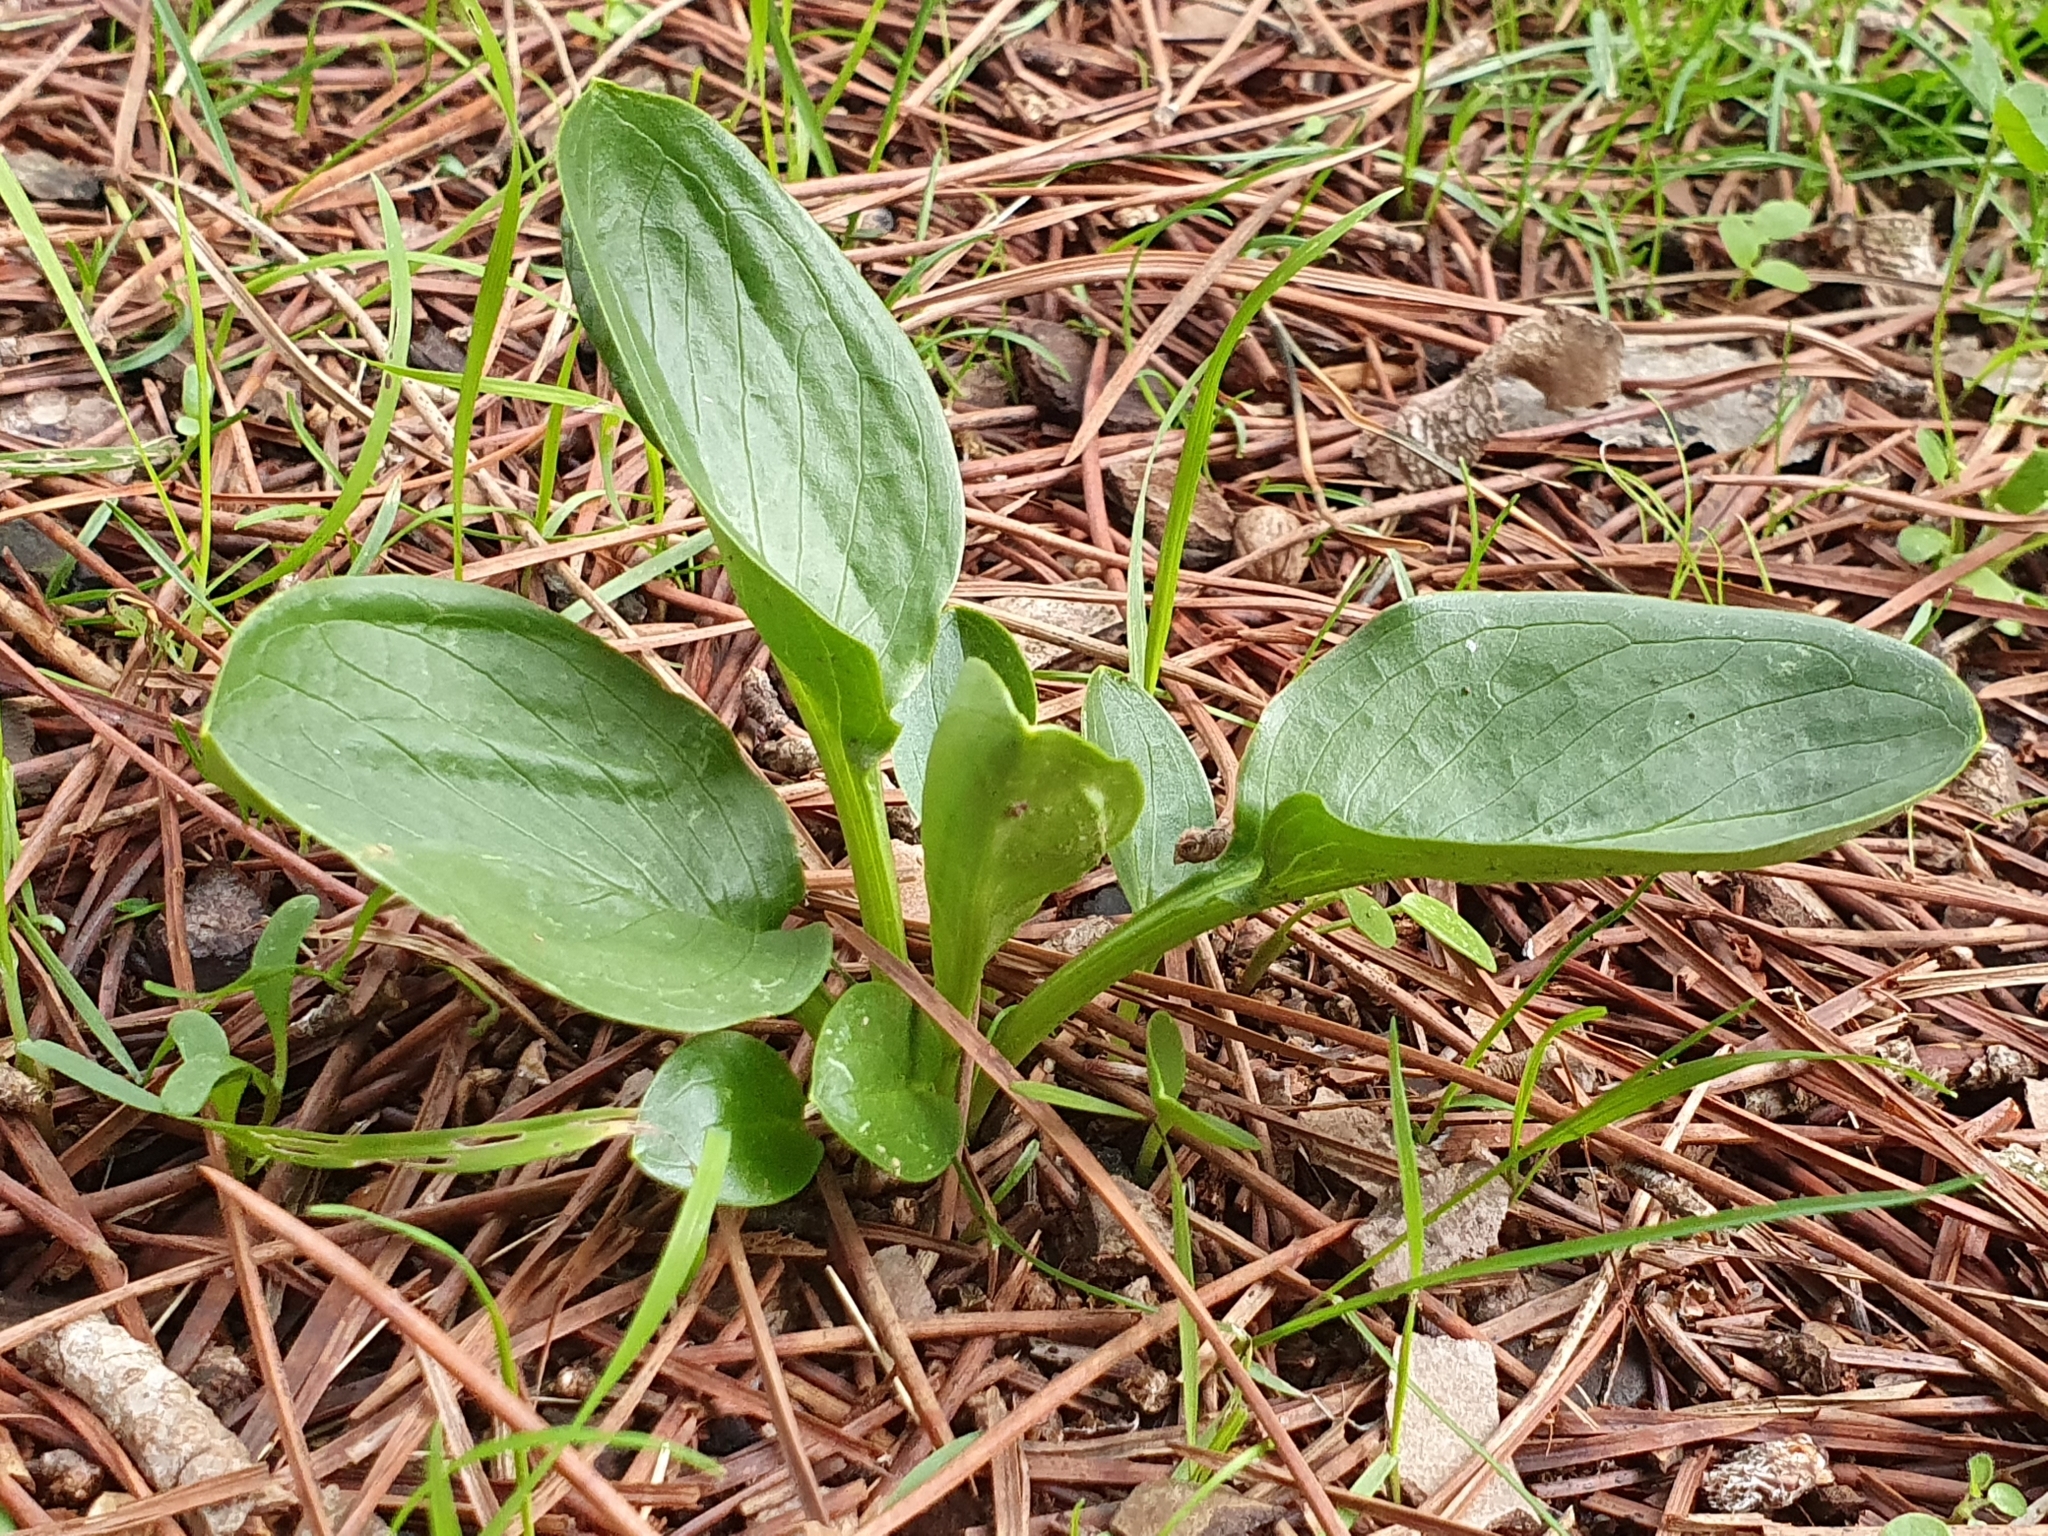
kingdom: Plantae
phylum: Tracheophyta
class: Liliopsida
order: Alismatales
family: Araceae
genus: Biarum
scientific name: Biarum dispar
